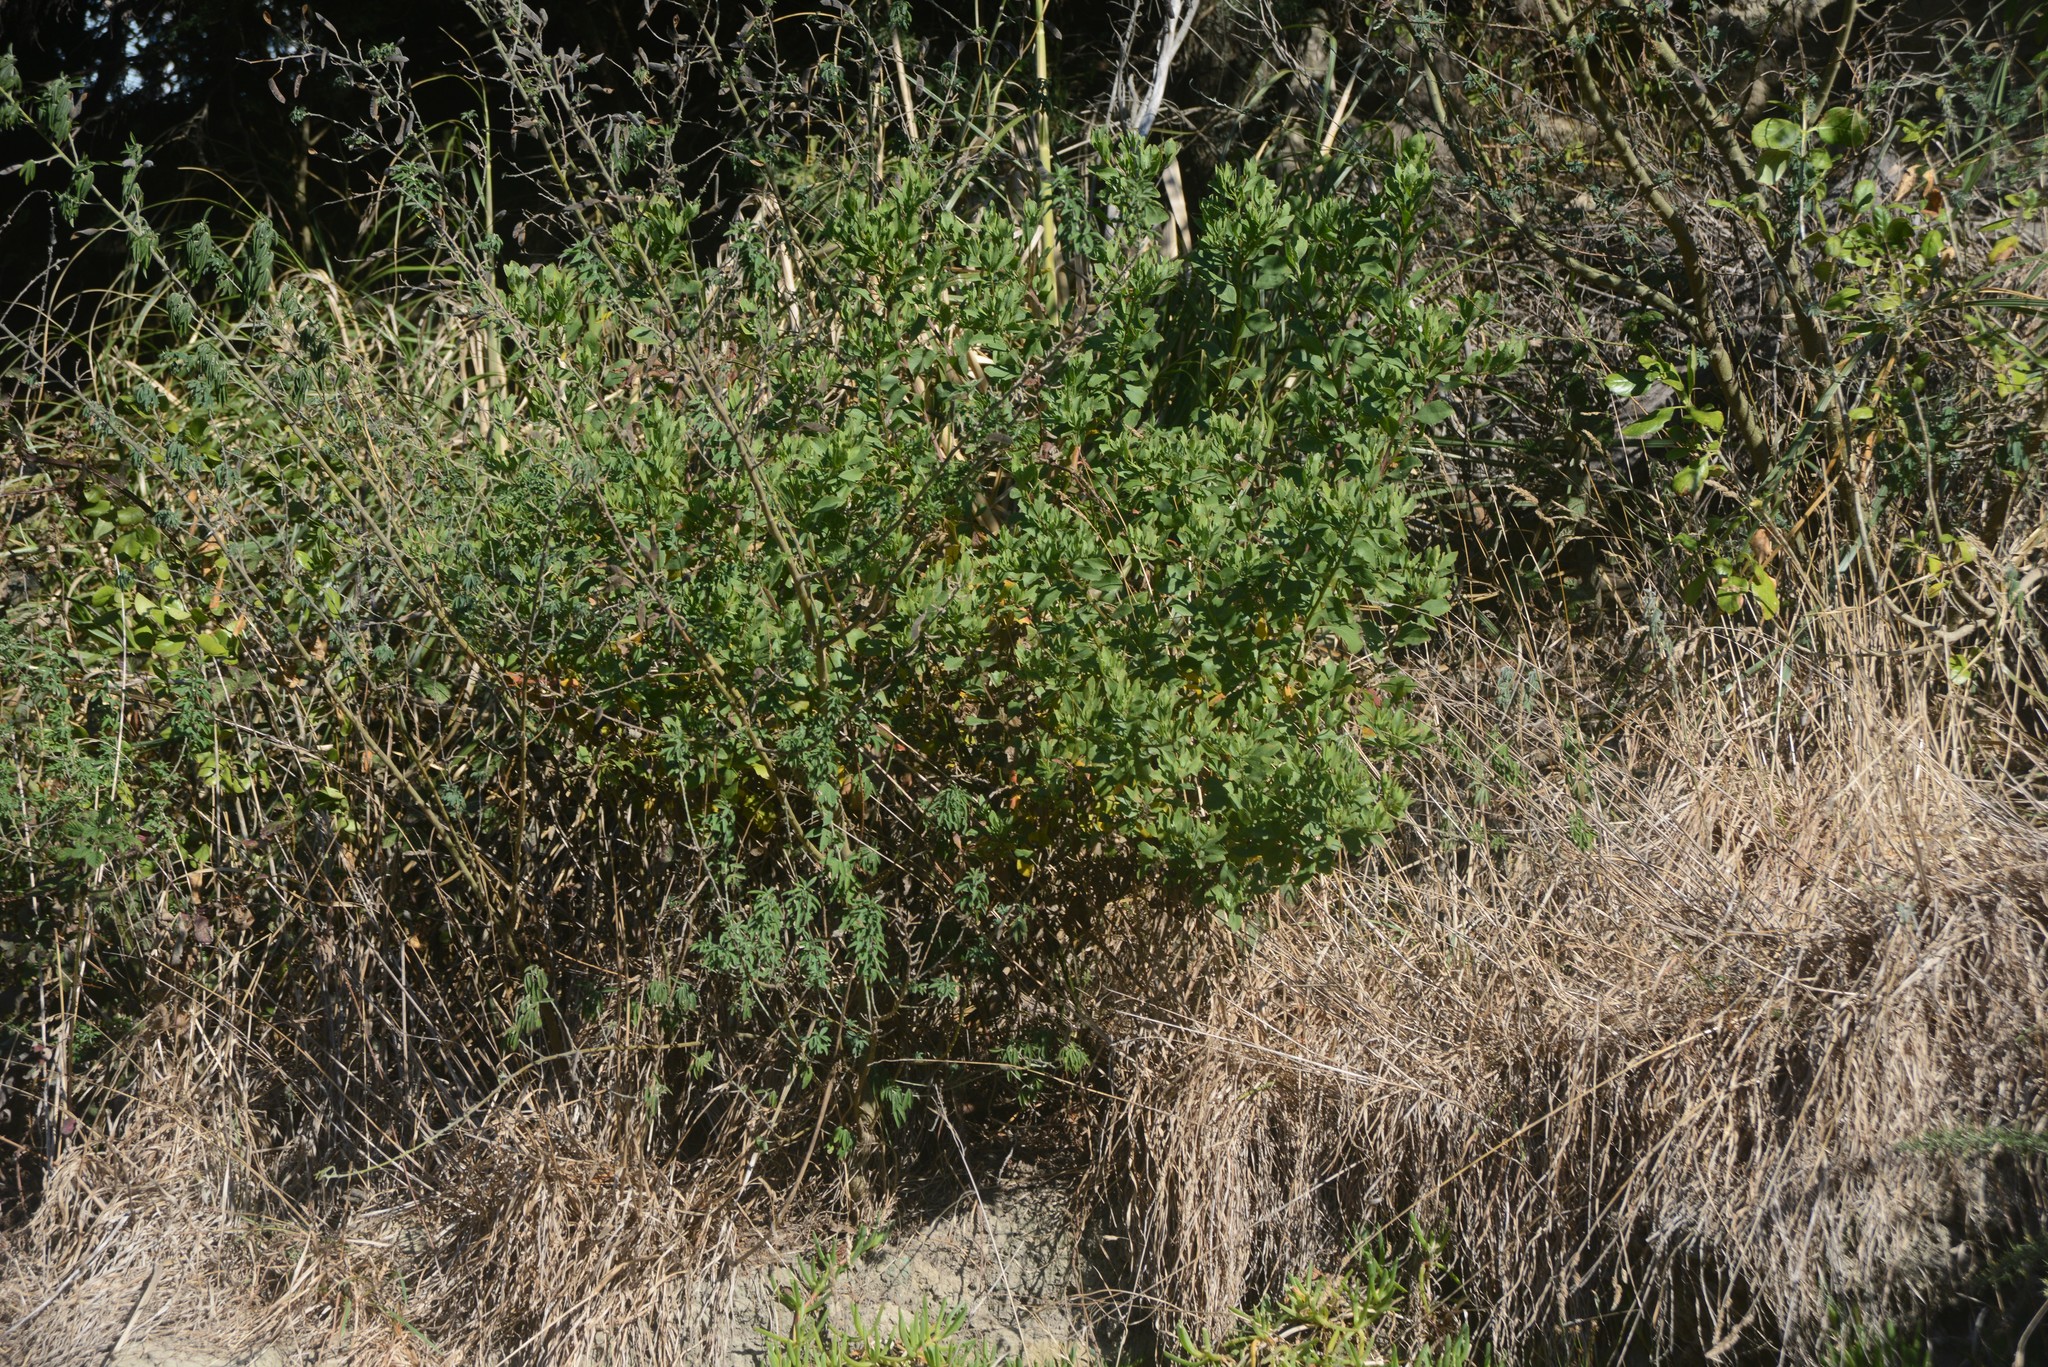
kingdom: Plantae
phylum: Tracheophyta
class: Magnoliopsida
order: Asterales
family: Asteraceae
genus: Osteospermum
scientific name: Osteospermum moniliferum
